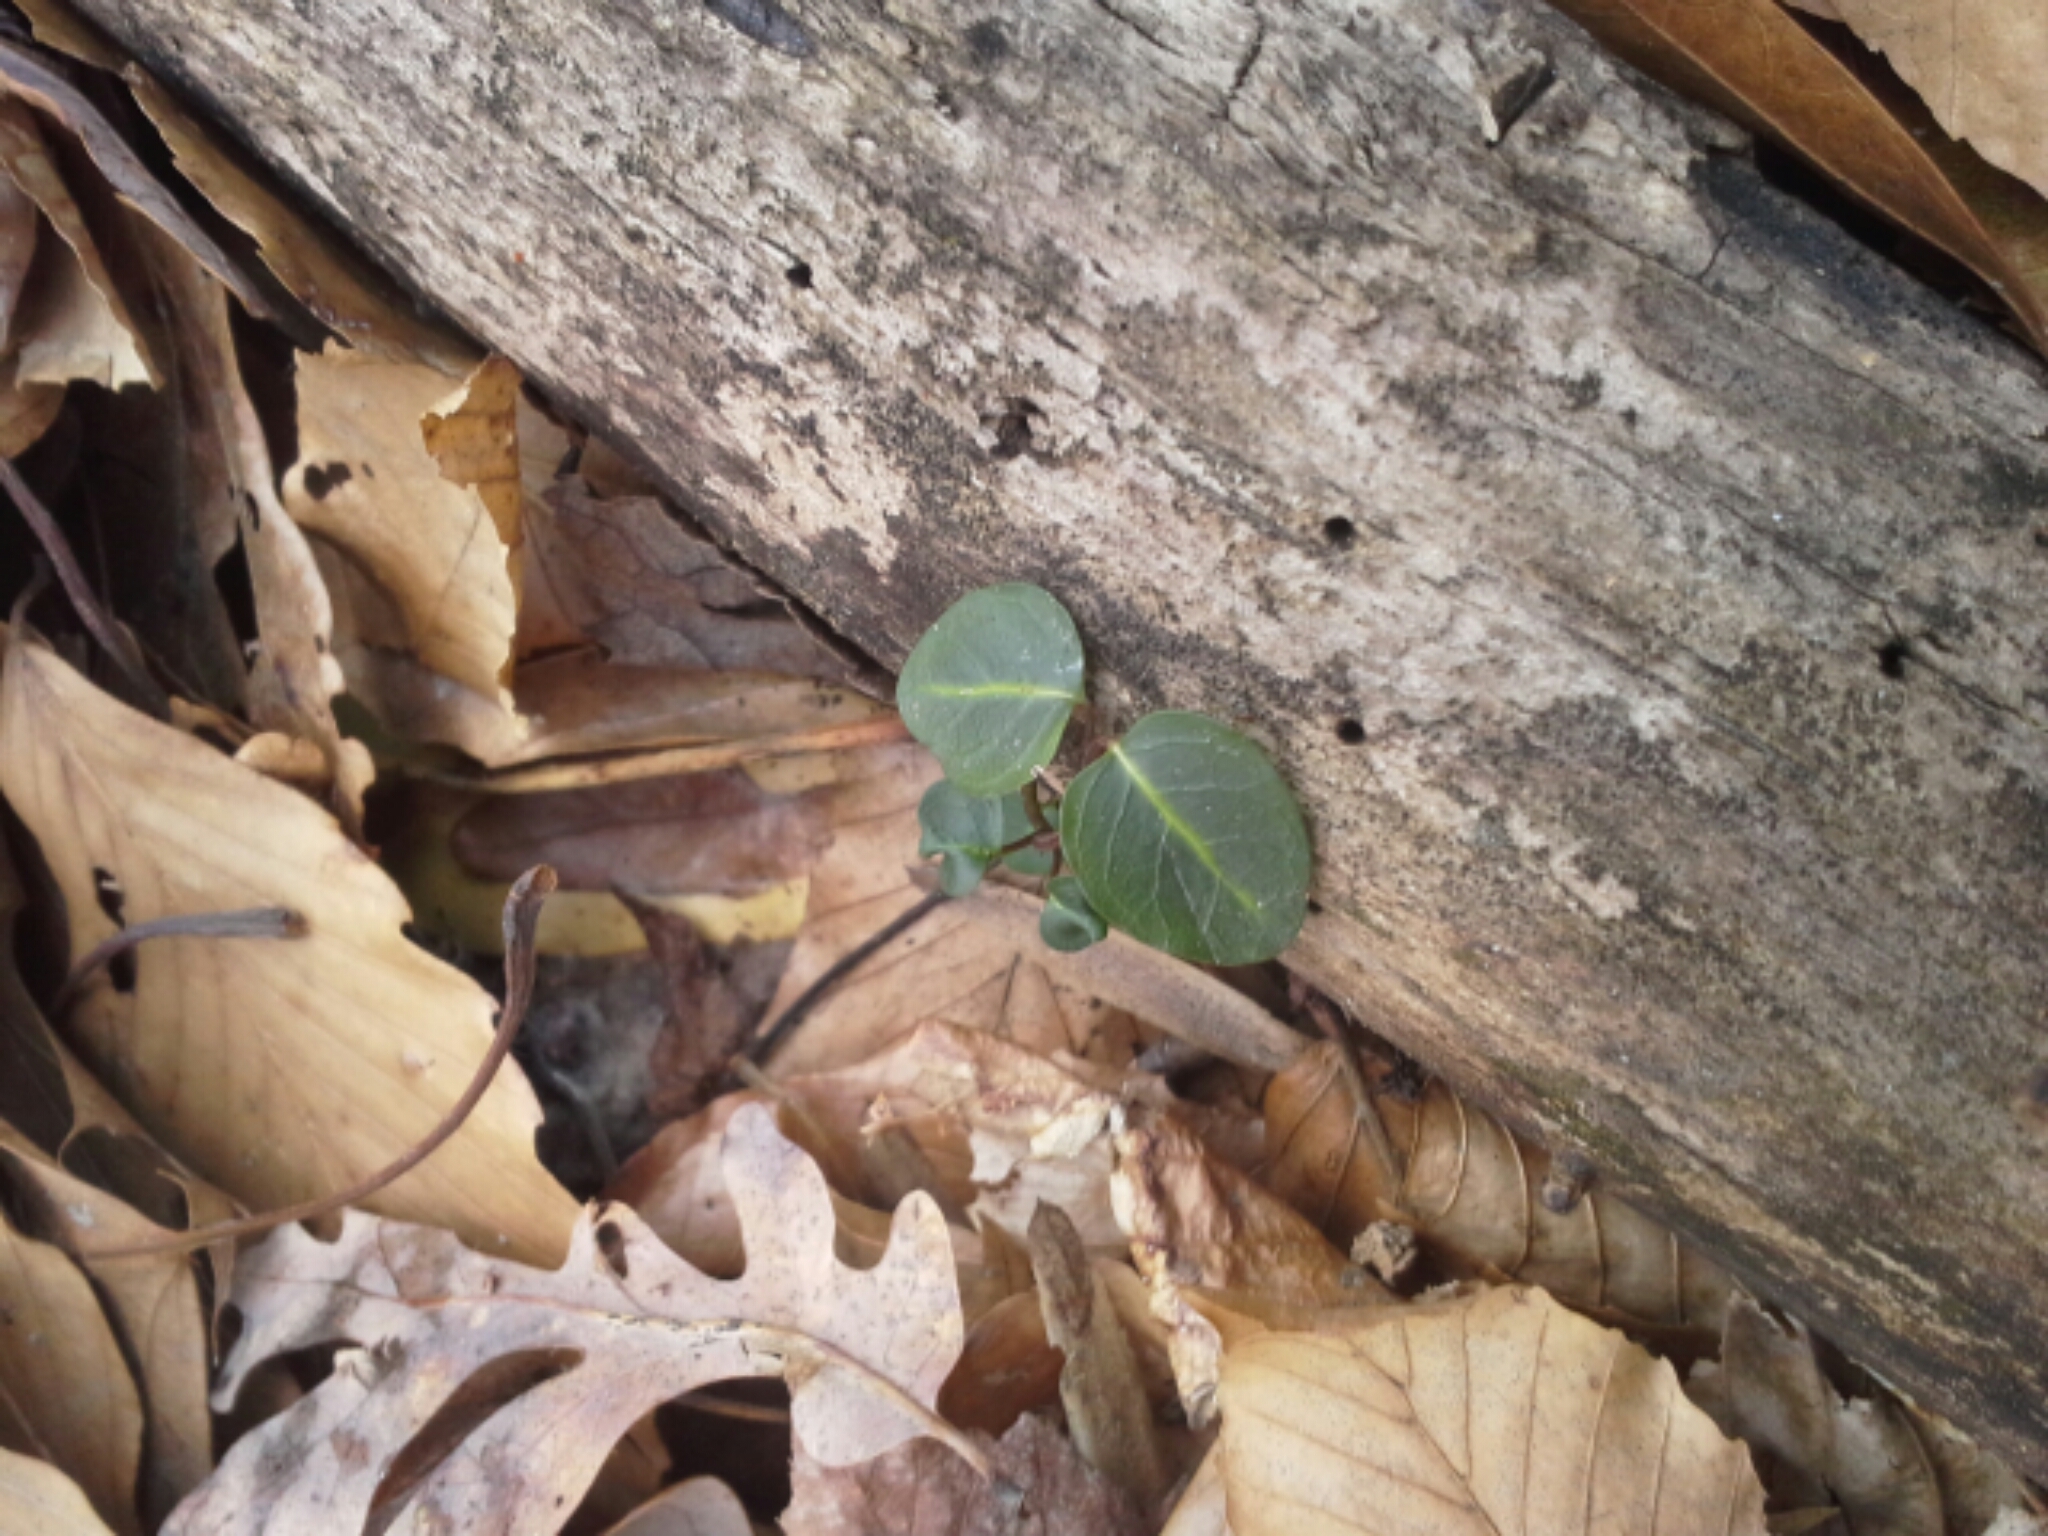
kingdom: Plantae
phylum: Tracheophyta
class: Magnoliopsida
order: Gentianales
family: Rubiaceae
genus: Mitchella
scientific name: Mitchella repens
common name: Partridge-berry
